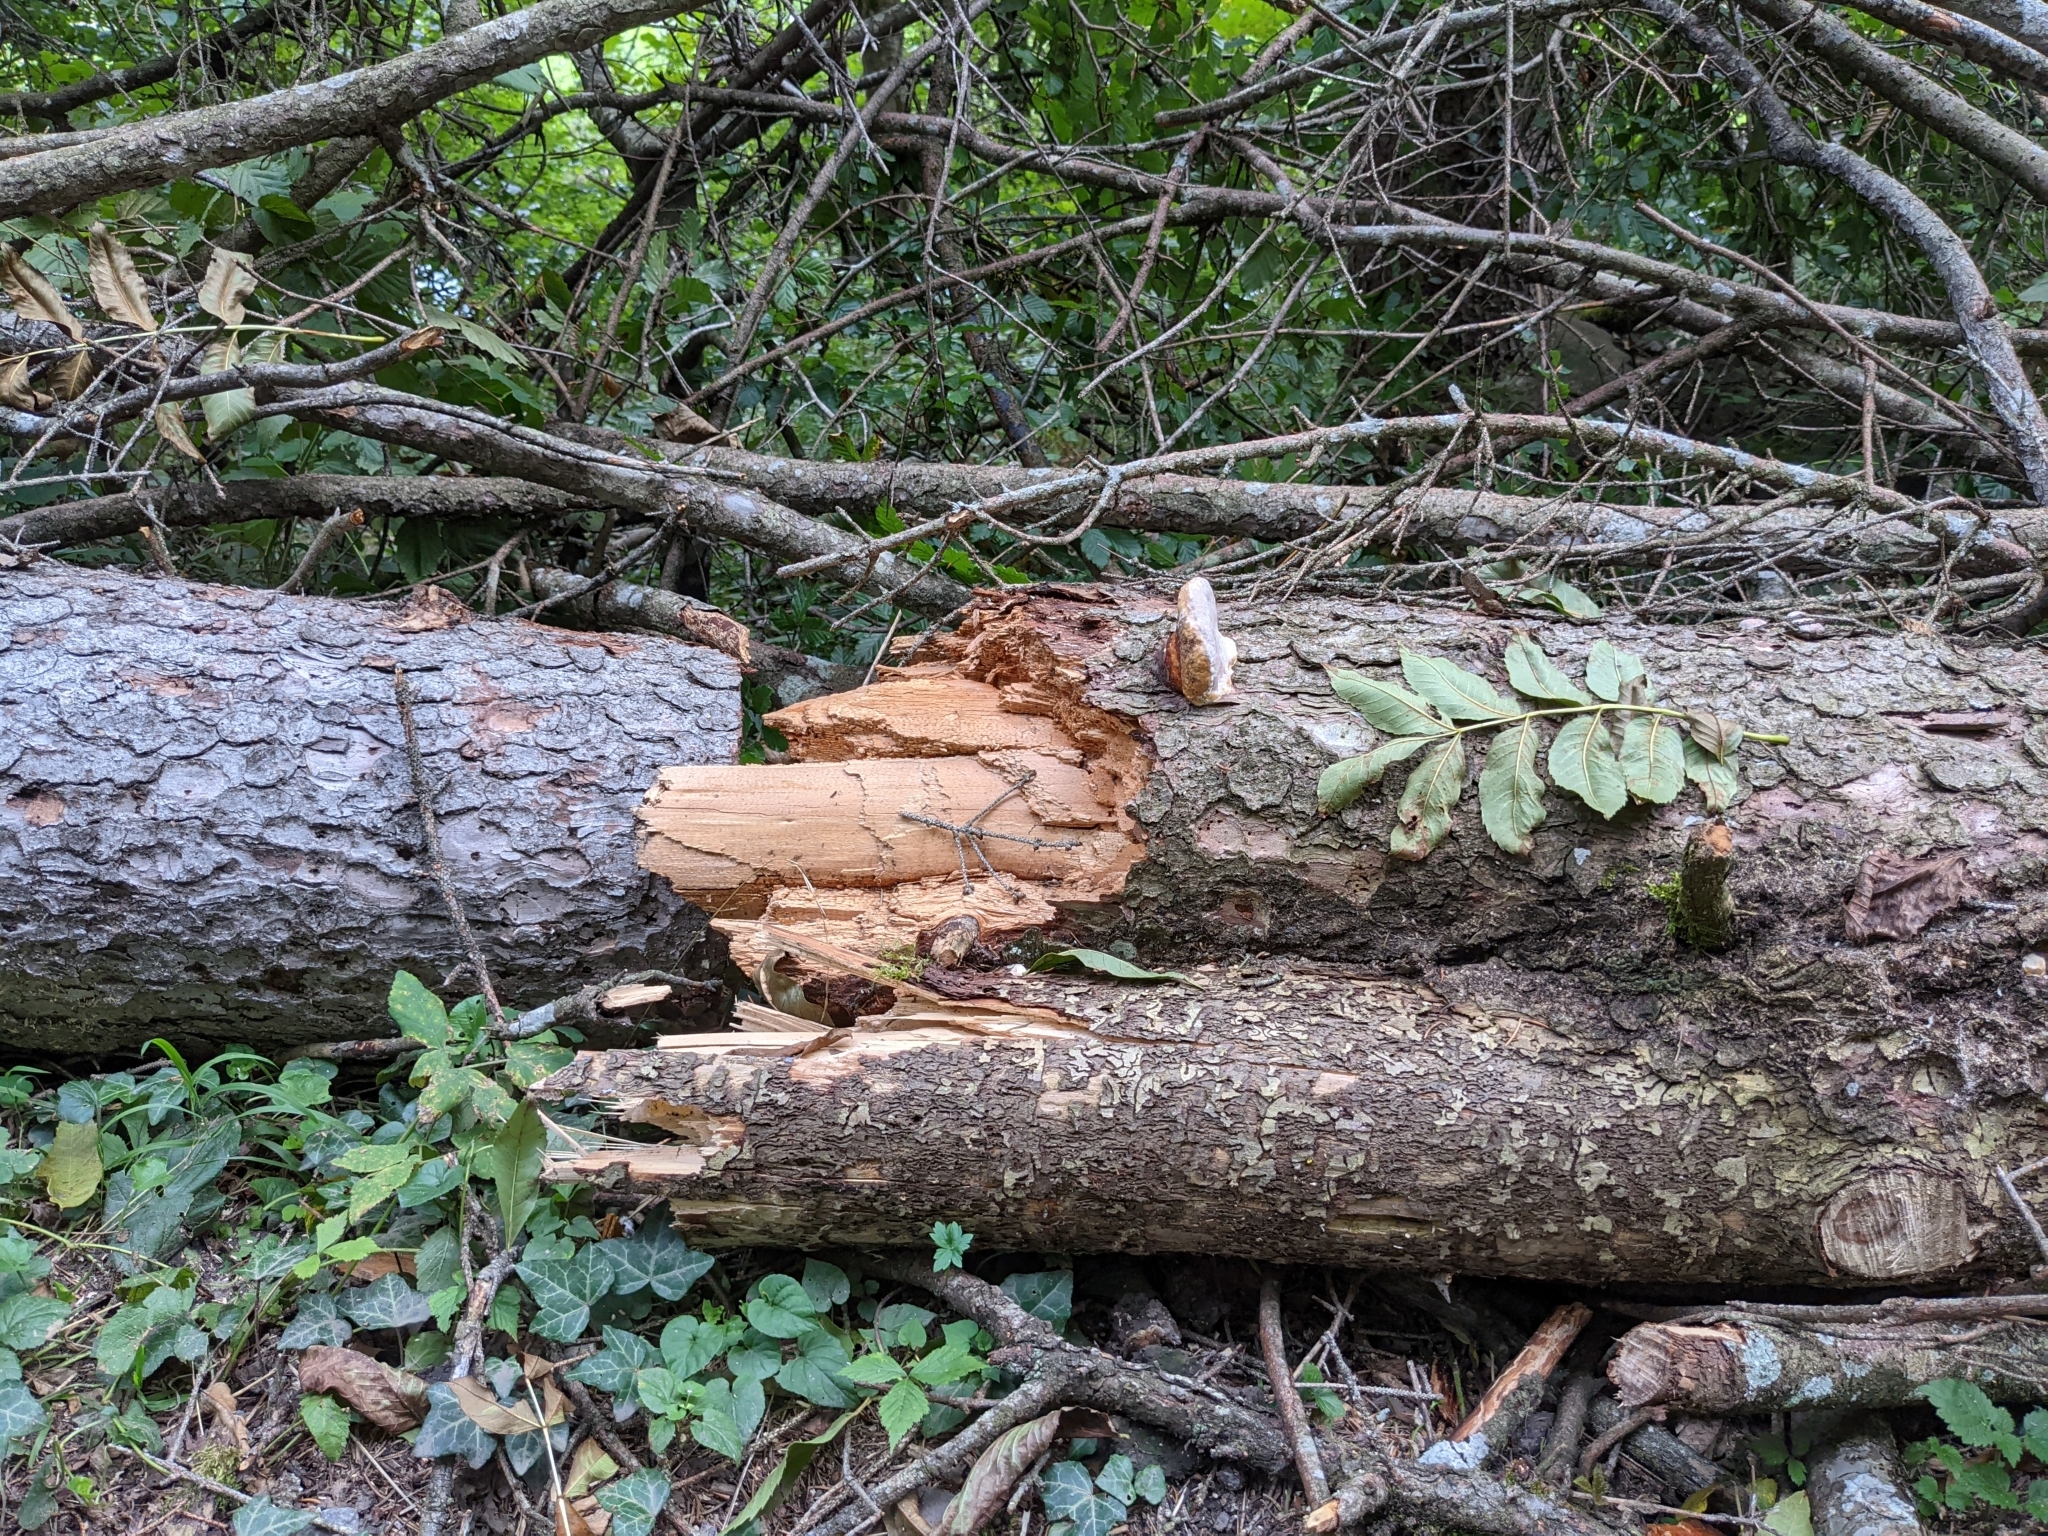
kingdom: Fungi
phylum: Basidiomycota
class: Agaricomycetes
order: Polyporales
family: Fomitopsidaceae
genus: Fomitopsis
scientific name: Fomitopsis pinicola
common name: Red-belted bracket
